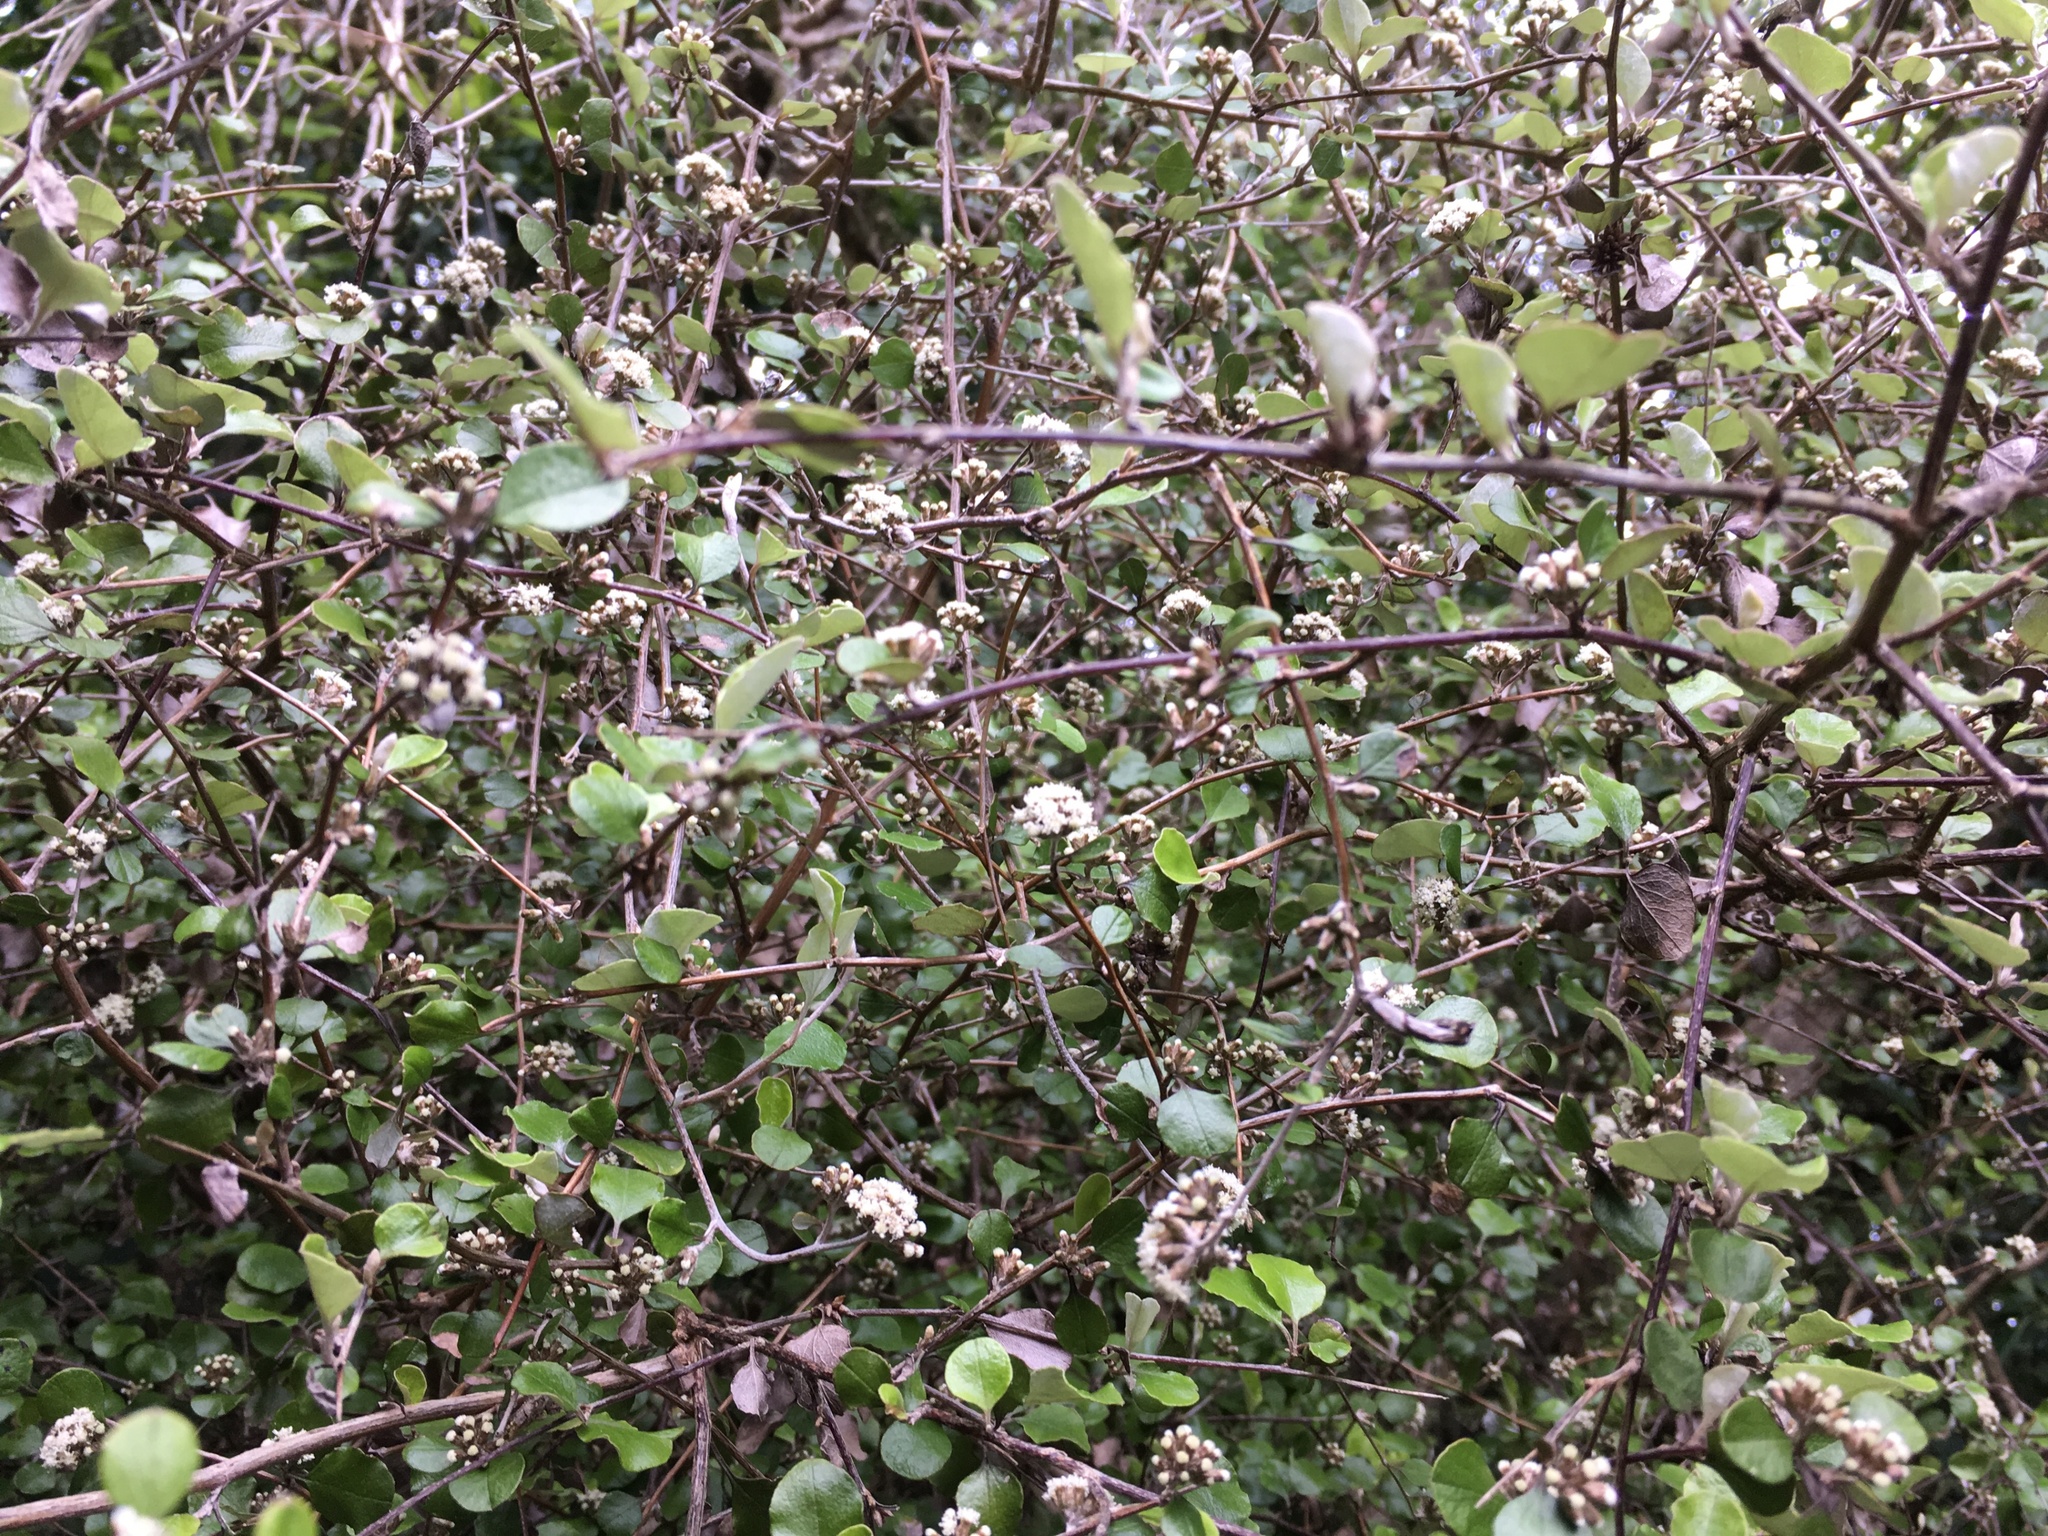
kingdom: Plantae
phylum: Tracheophyta
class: Magnoliopsida
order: Asterales
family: Asteraceae
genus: Ozothamnus
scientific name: Ozothamnus glomeratus
